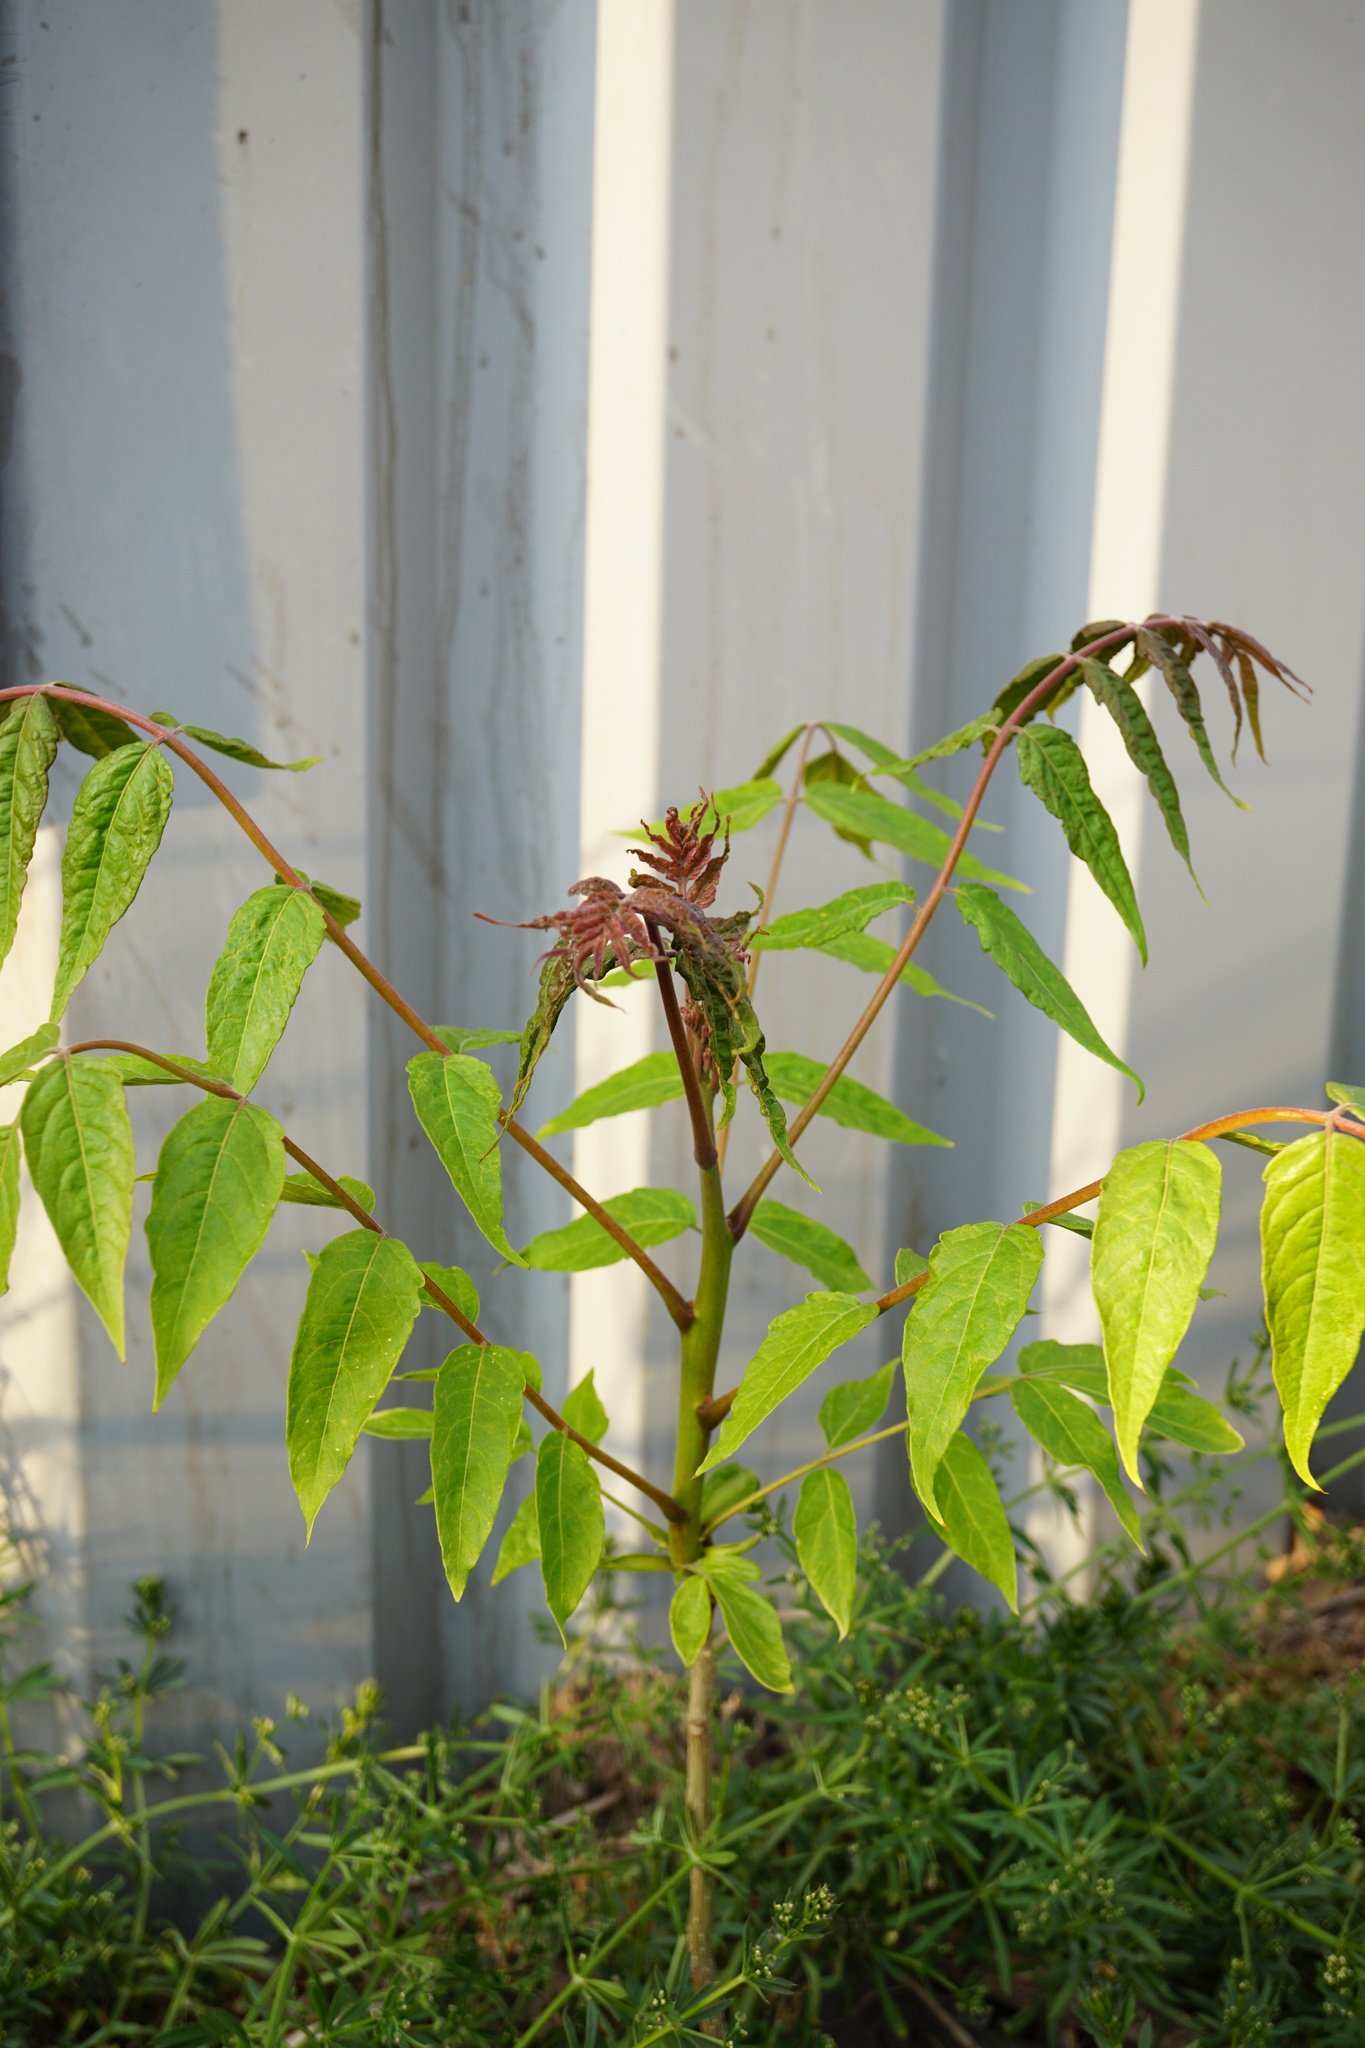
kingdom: Plantae
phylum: Tracheophyta
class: Magnoliopsida
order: Sapindales
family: Simaroubaceae
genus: Ailanthus
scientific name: Ailanthus altissima
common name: Tree-of-heaven
